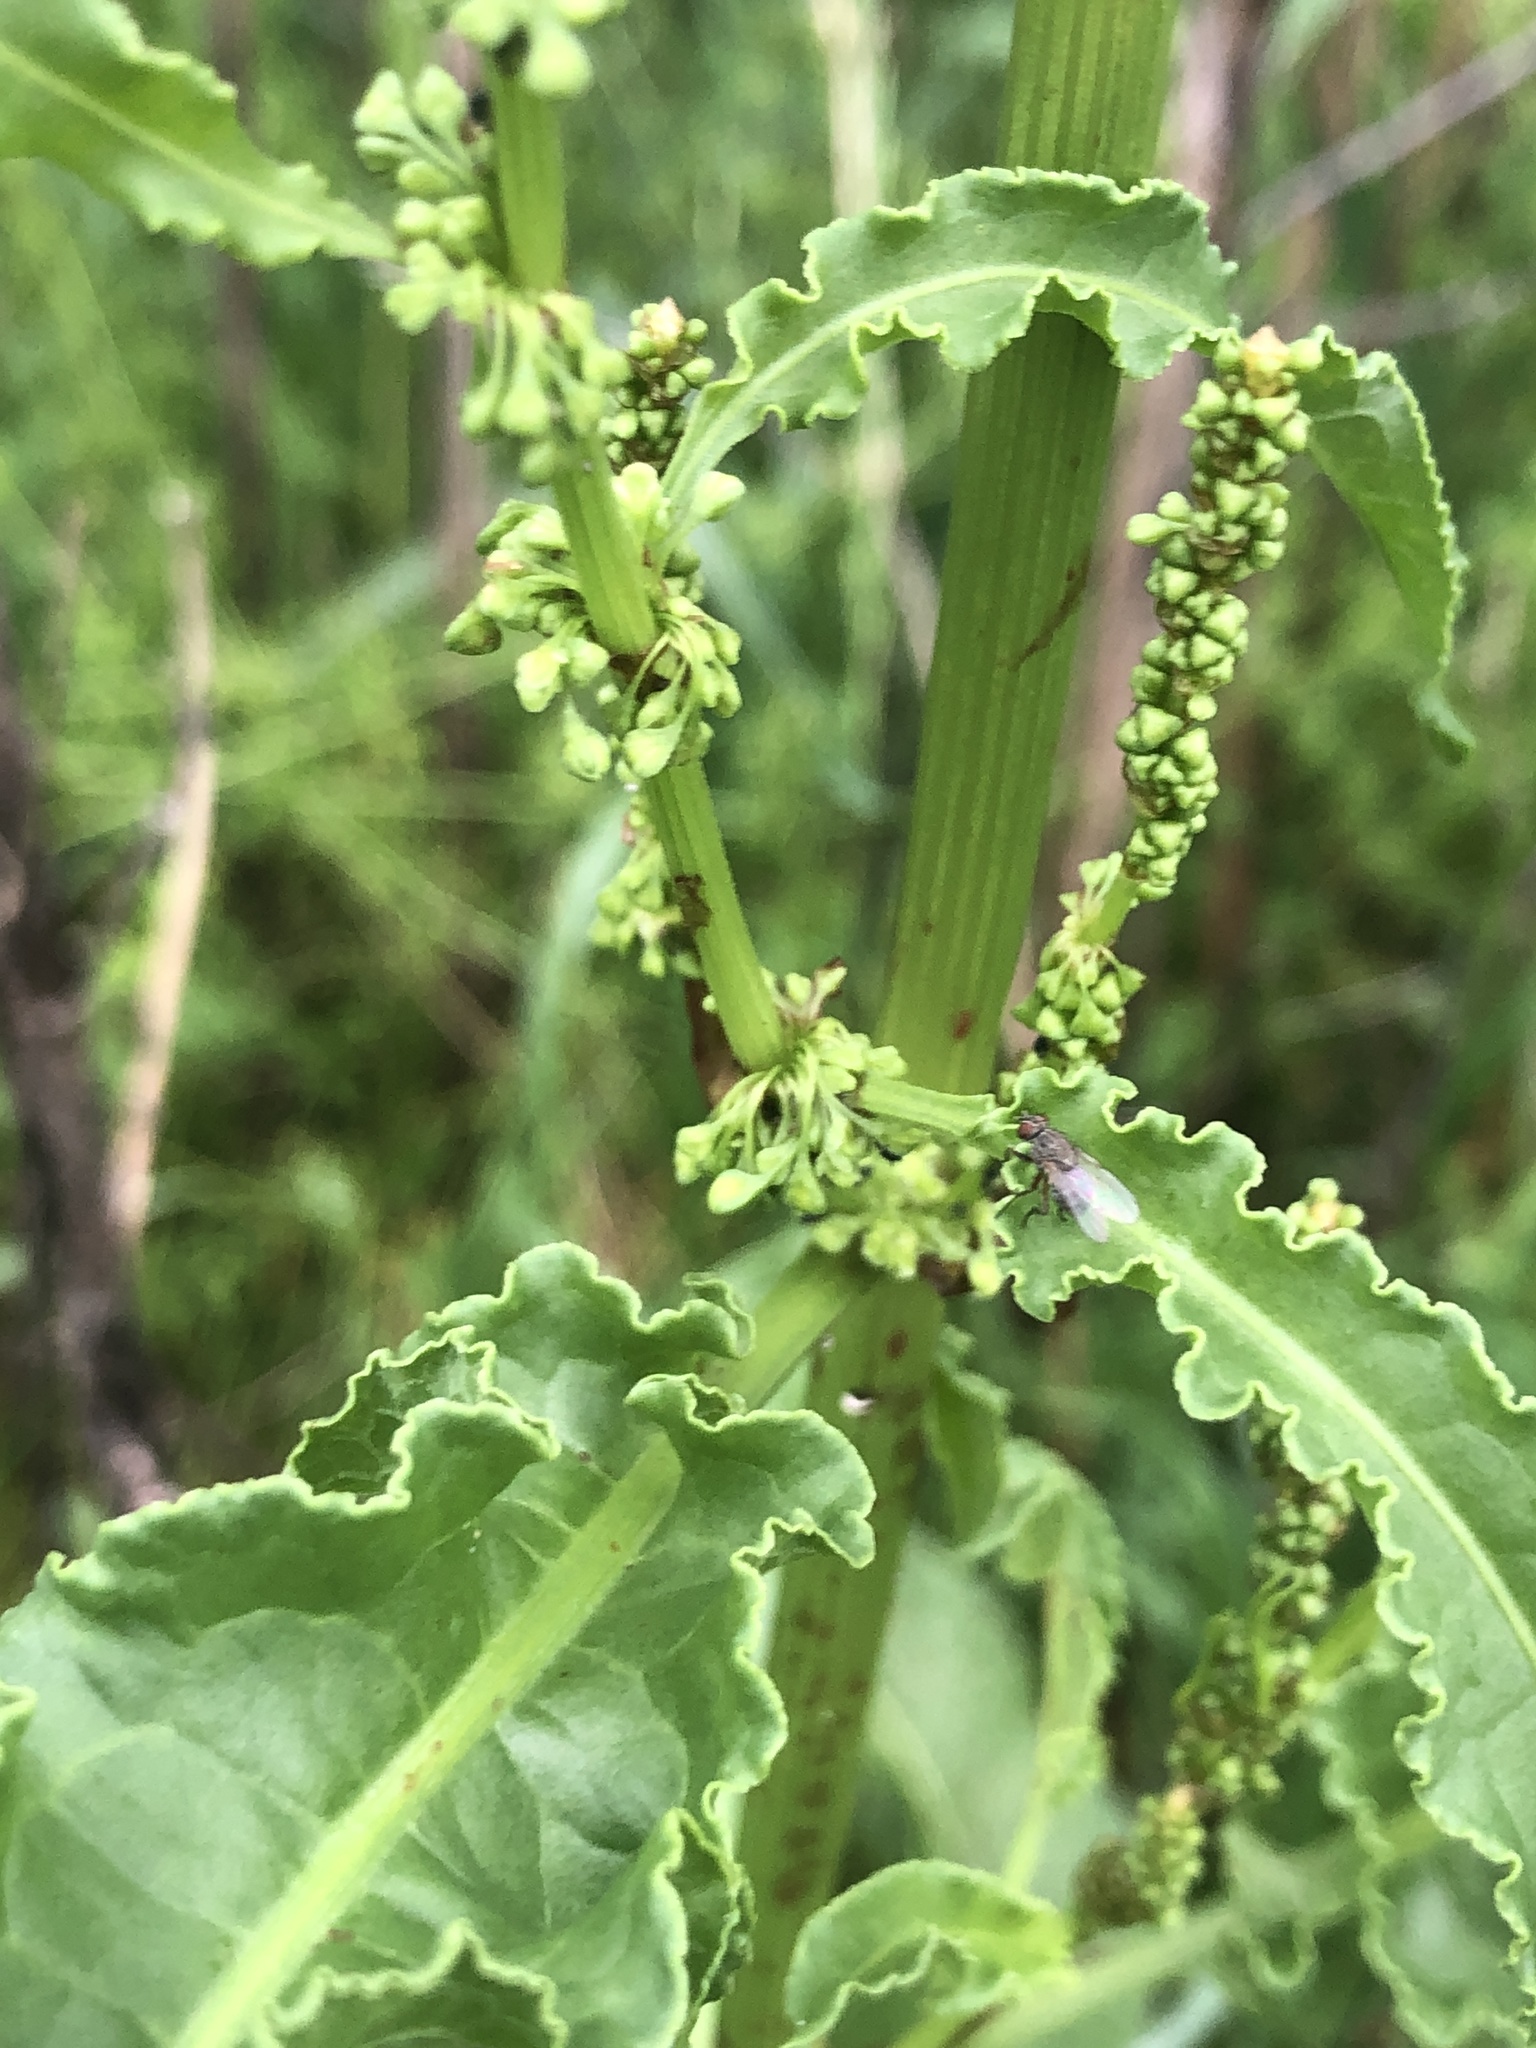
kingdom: Plantae
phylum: Tracheophyta
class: Magnoliopsida
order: Caryophyllales
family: Polygonaceae
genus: Rumex
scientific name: Rumex crispus
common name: Curled dock
